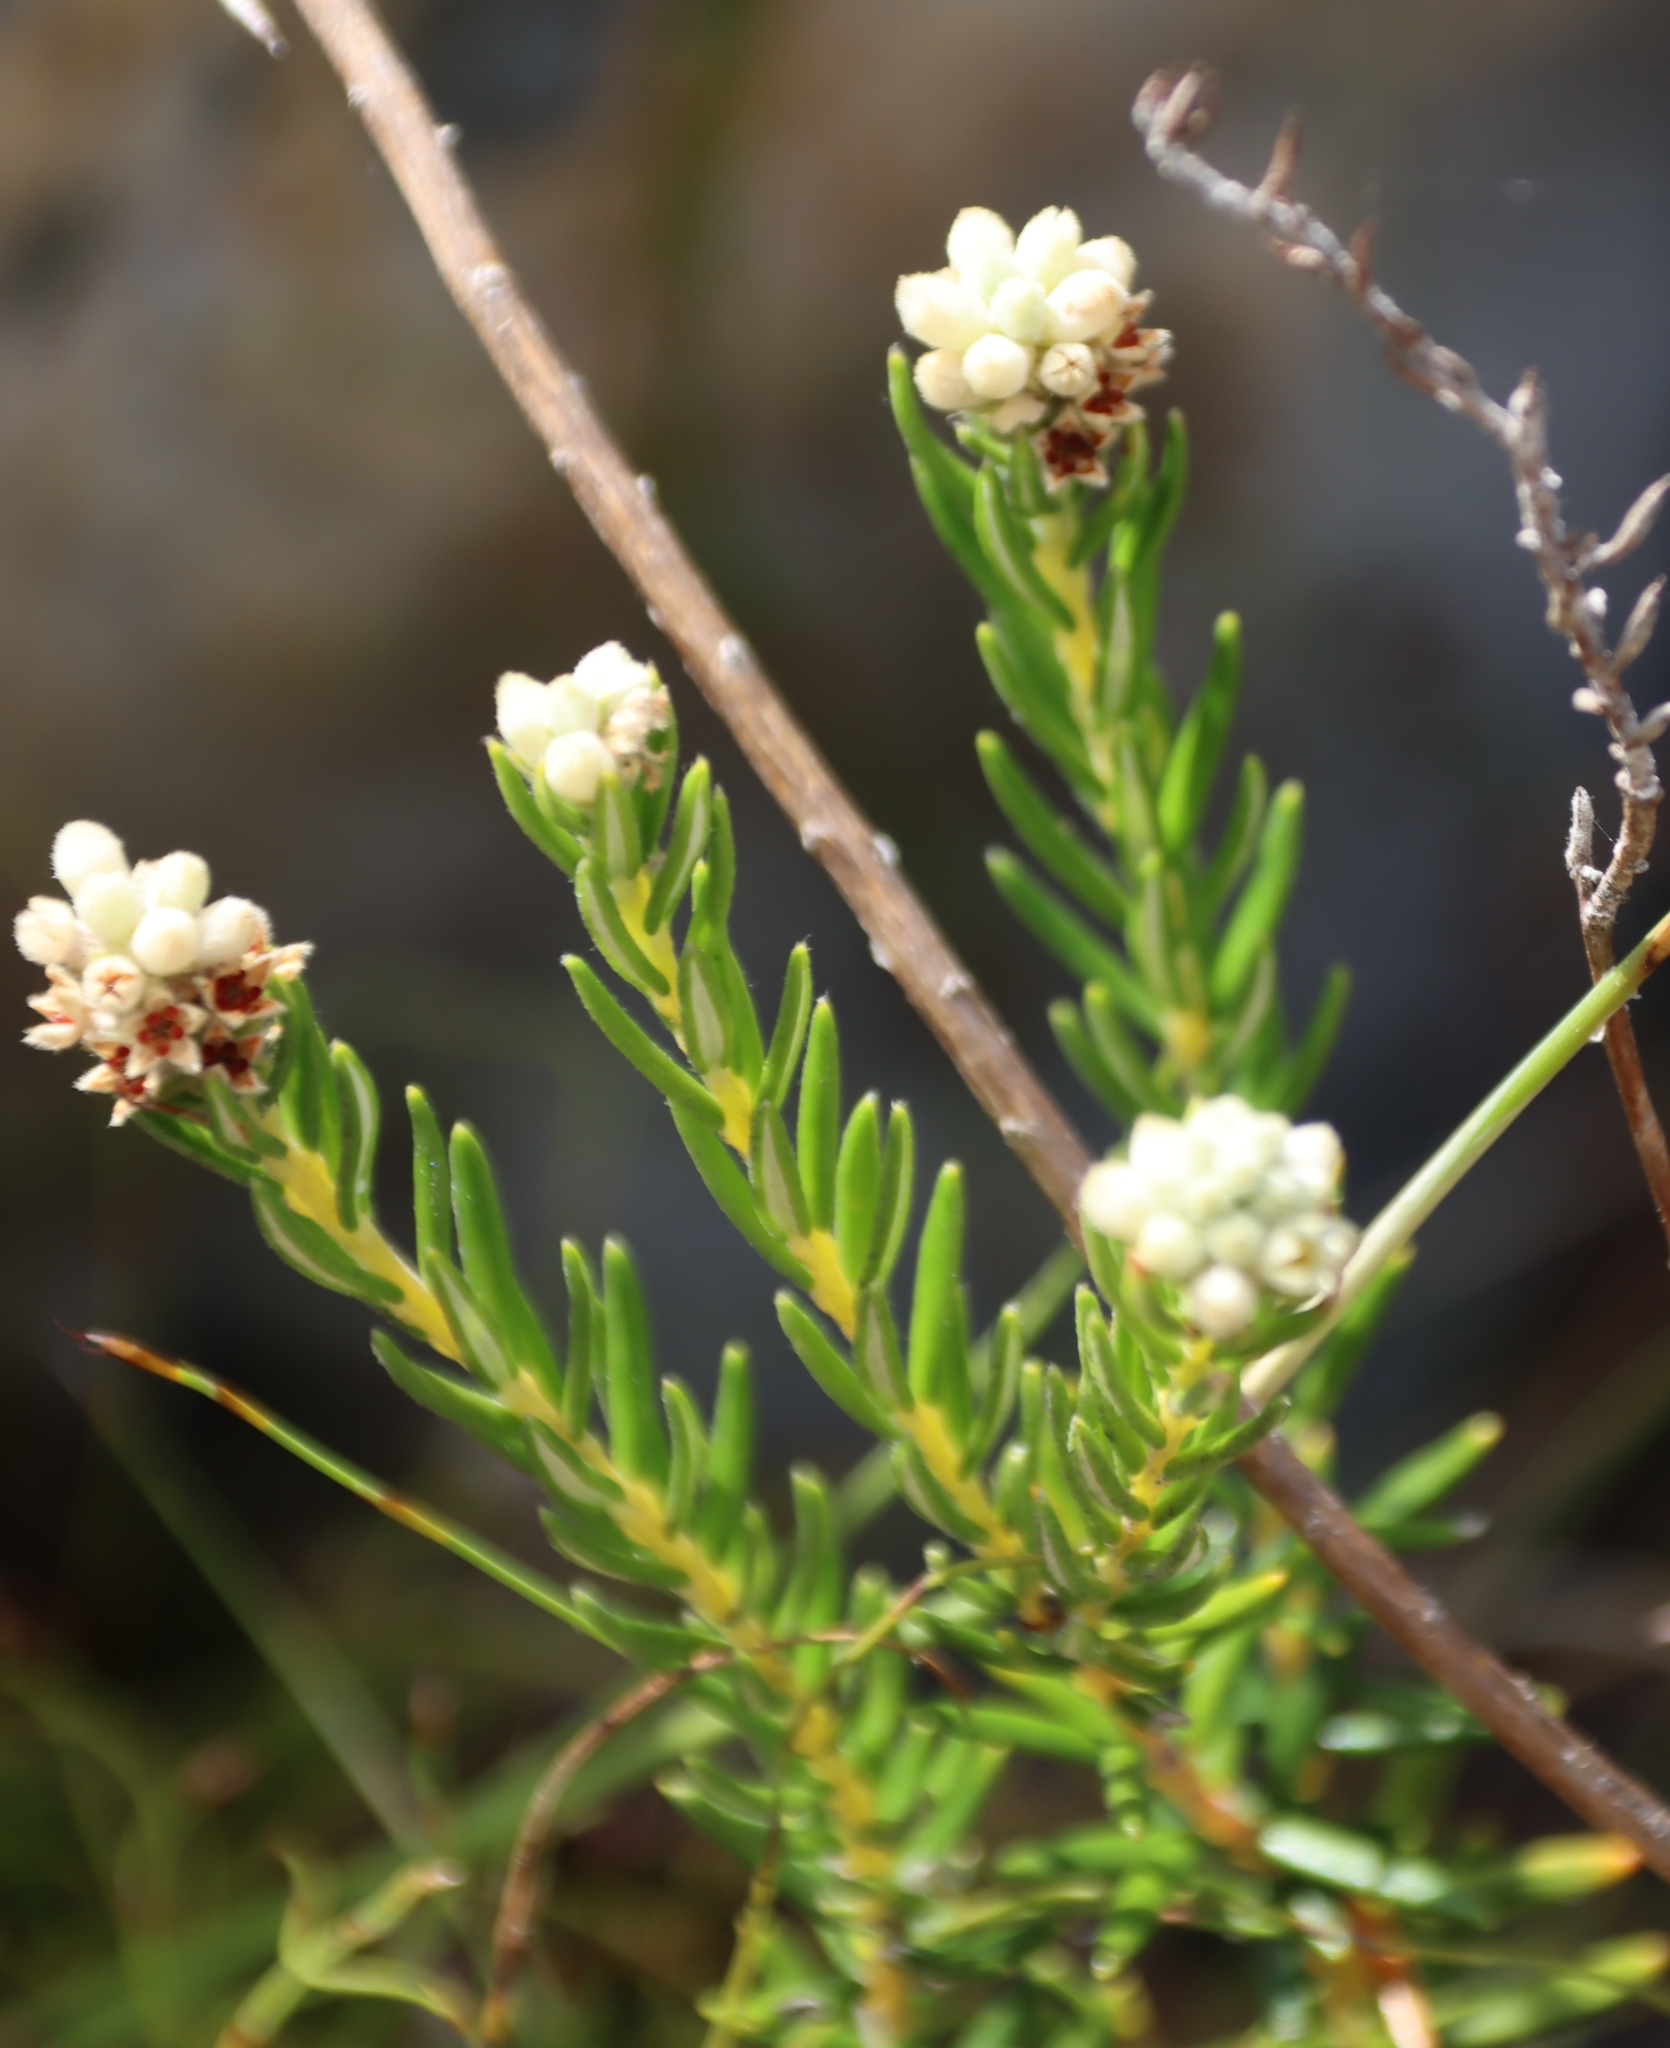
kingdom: Plantae
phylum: Tracheophyta
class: Magnoliopsida
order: Rosales
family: Rhamnaceae
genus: Phylica
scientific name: Phylica imberbis
